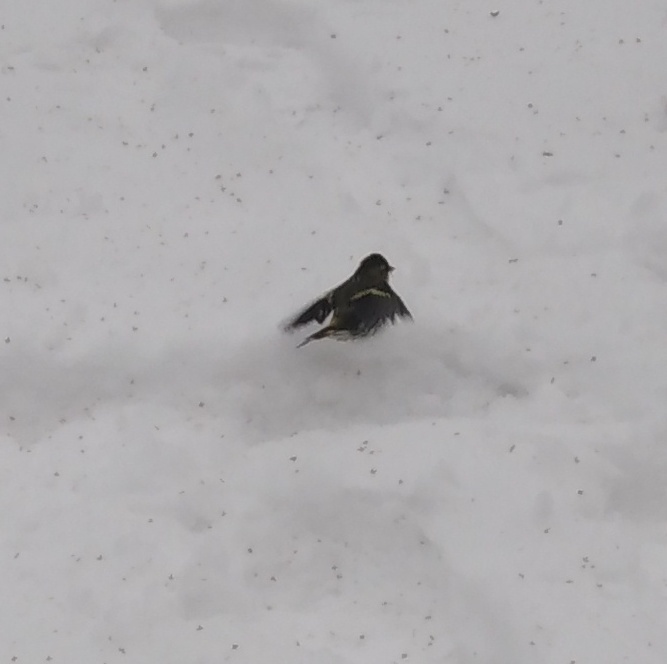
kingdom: Animalia
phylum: Chordata
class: Aves
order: Passeriformes
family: Fringillidae
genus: Spinus
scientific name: Spinus spinus
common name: Eurasian siskin
